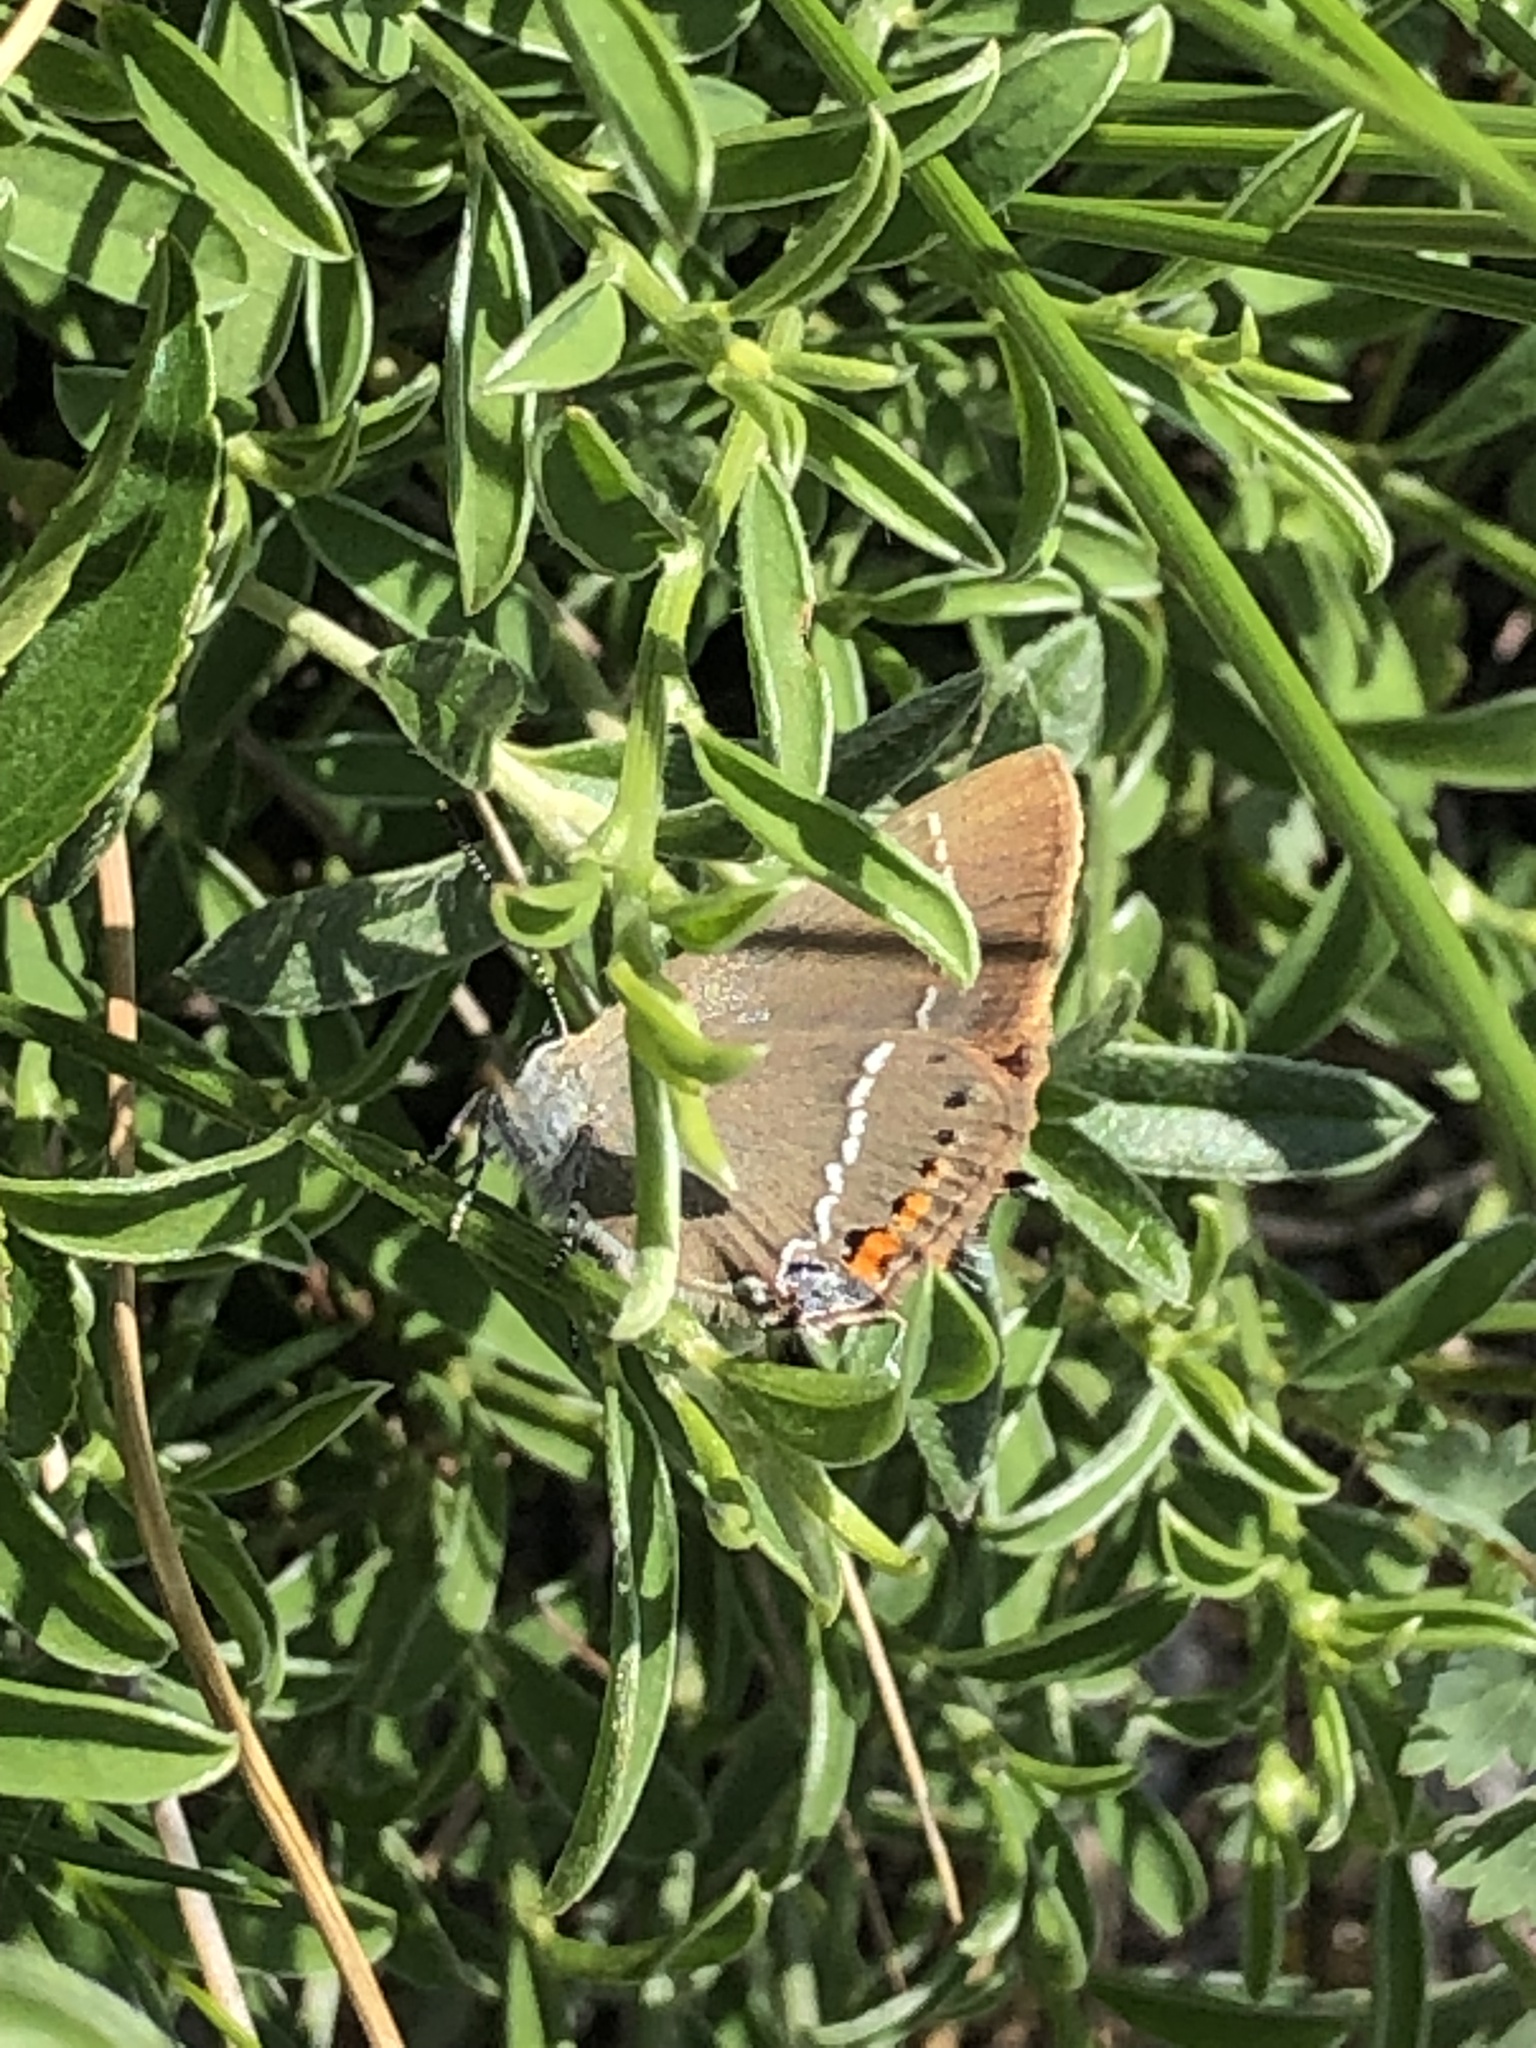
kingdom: Animalia
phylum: Arthropoda
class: Insecta
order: Lepidoptera
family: Lycaenidae
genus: Tuttiola
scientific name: Tuttiola spini
